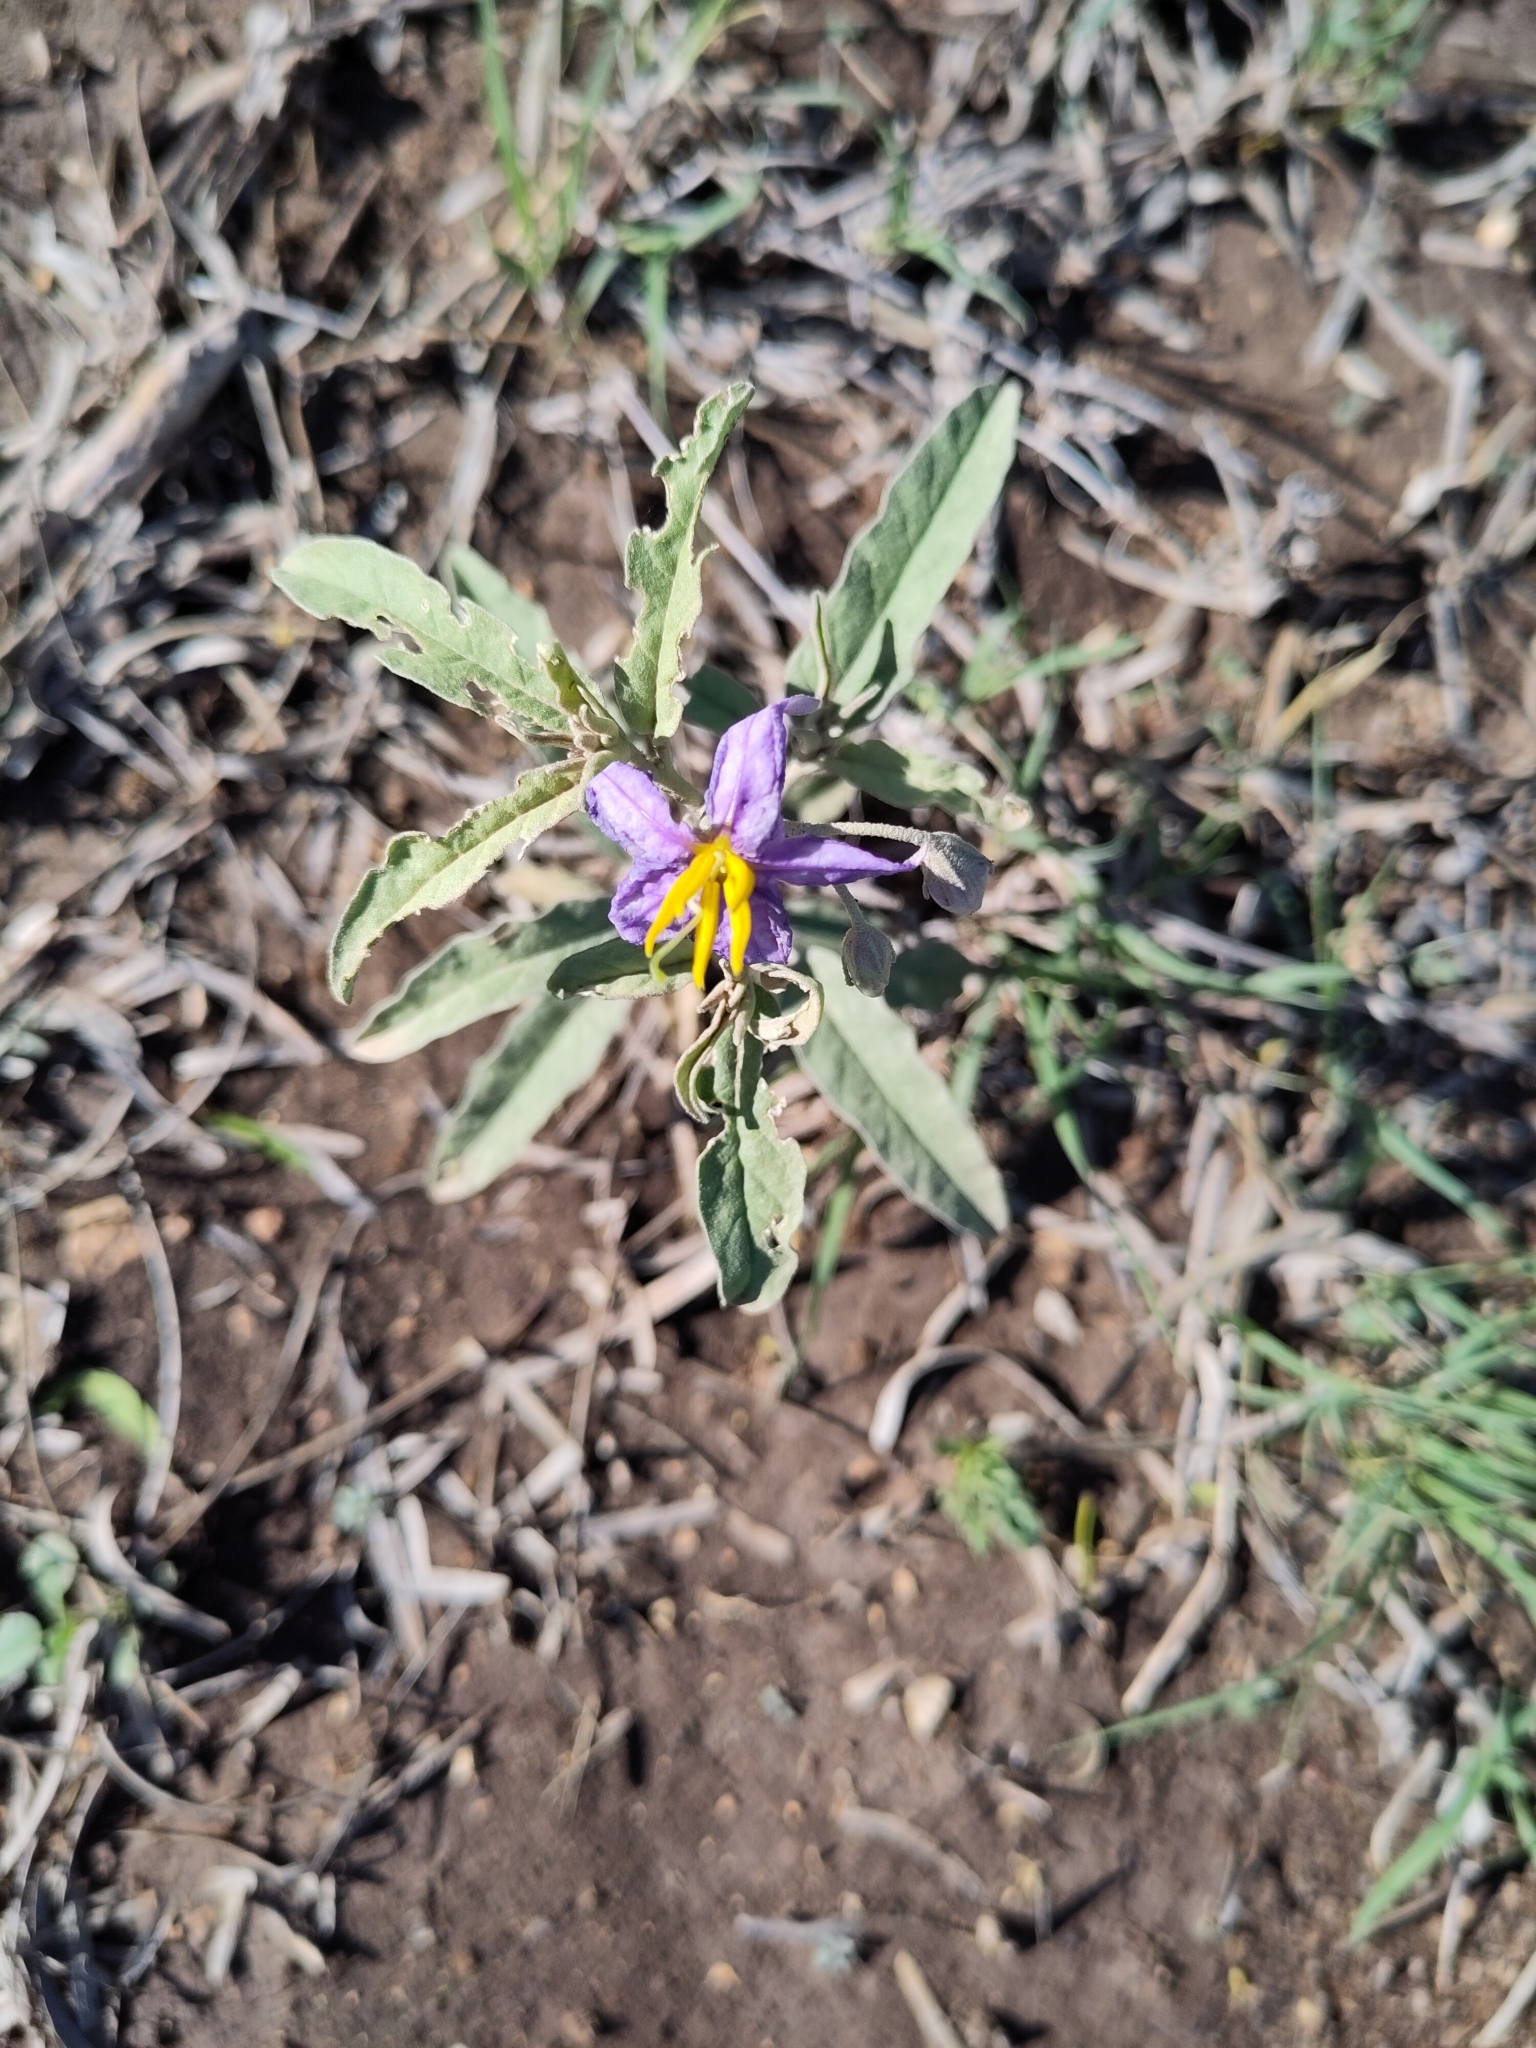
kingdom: Plantae
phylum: Tracheophyta
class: Magnoliopsida
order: Solanales
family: Solanaceae
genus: Solanum
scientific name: Solanum elaeagnifolium
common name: Silverleaf nightshade
